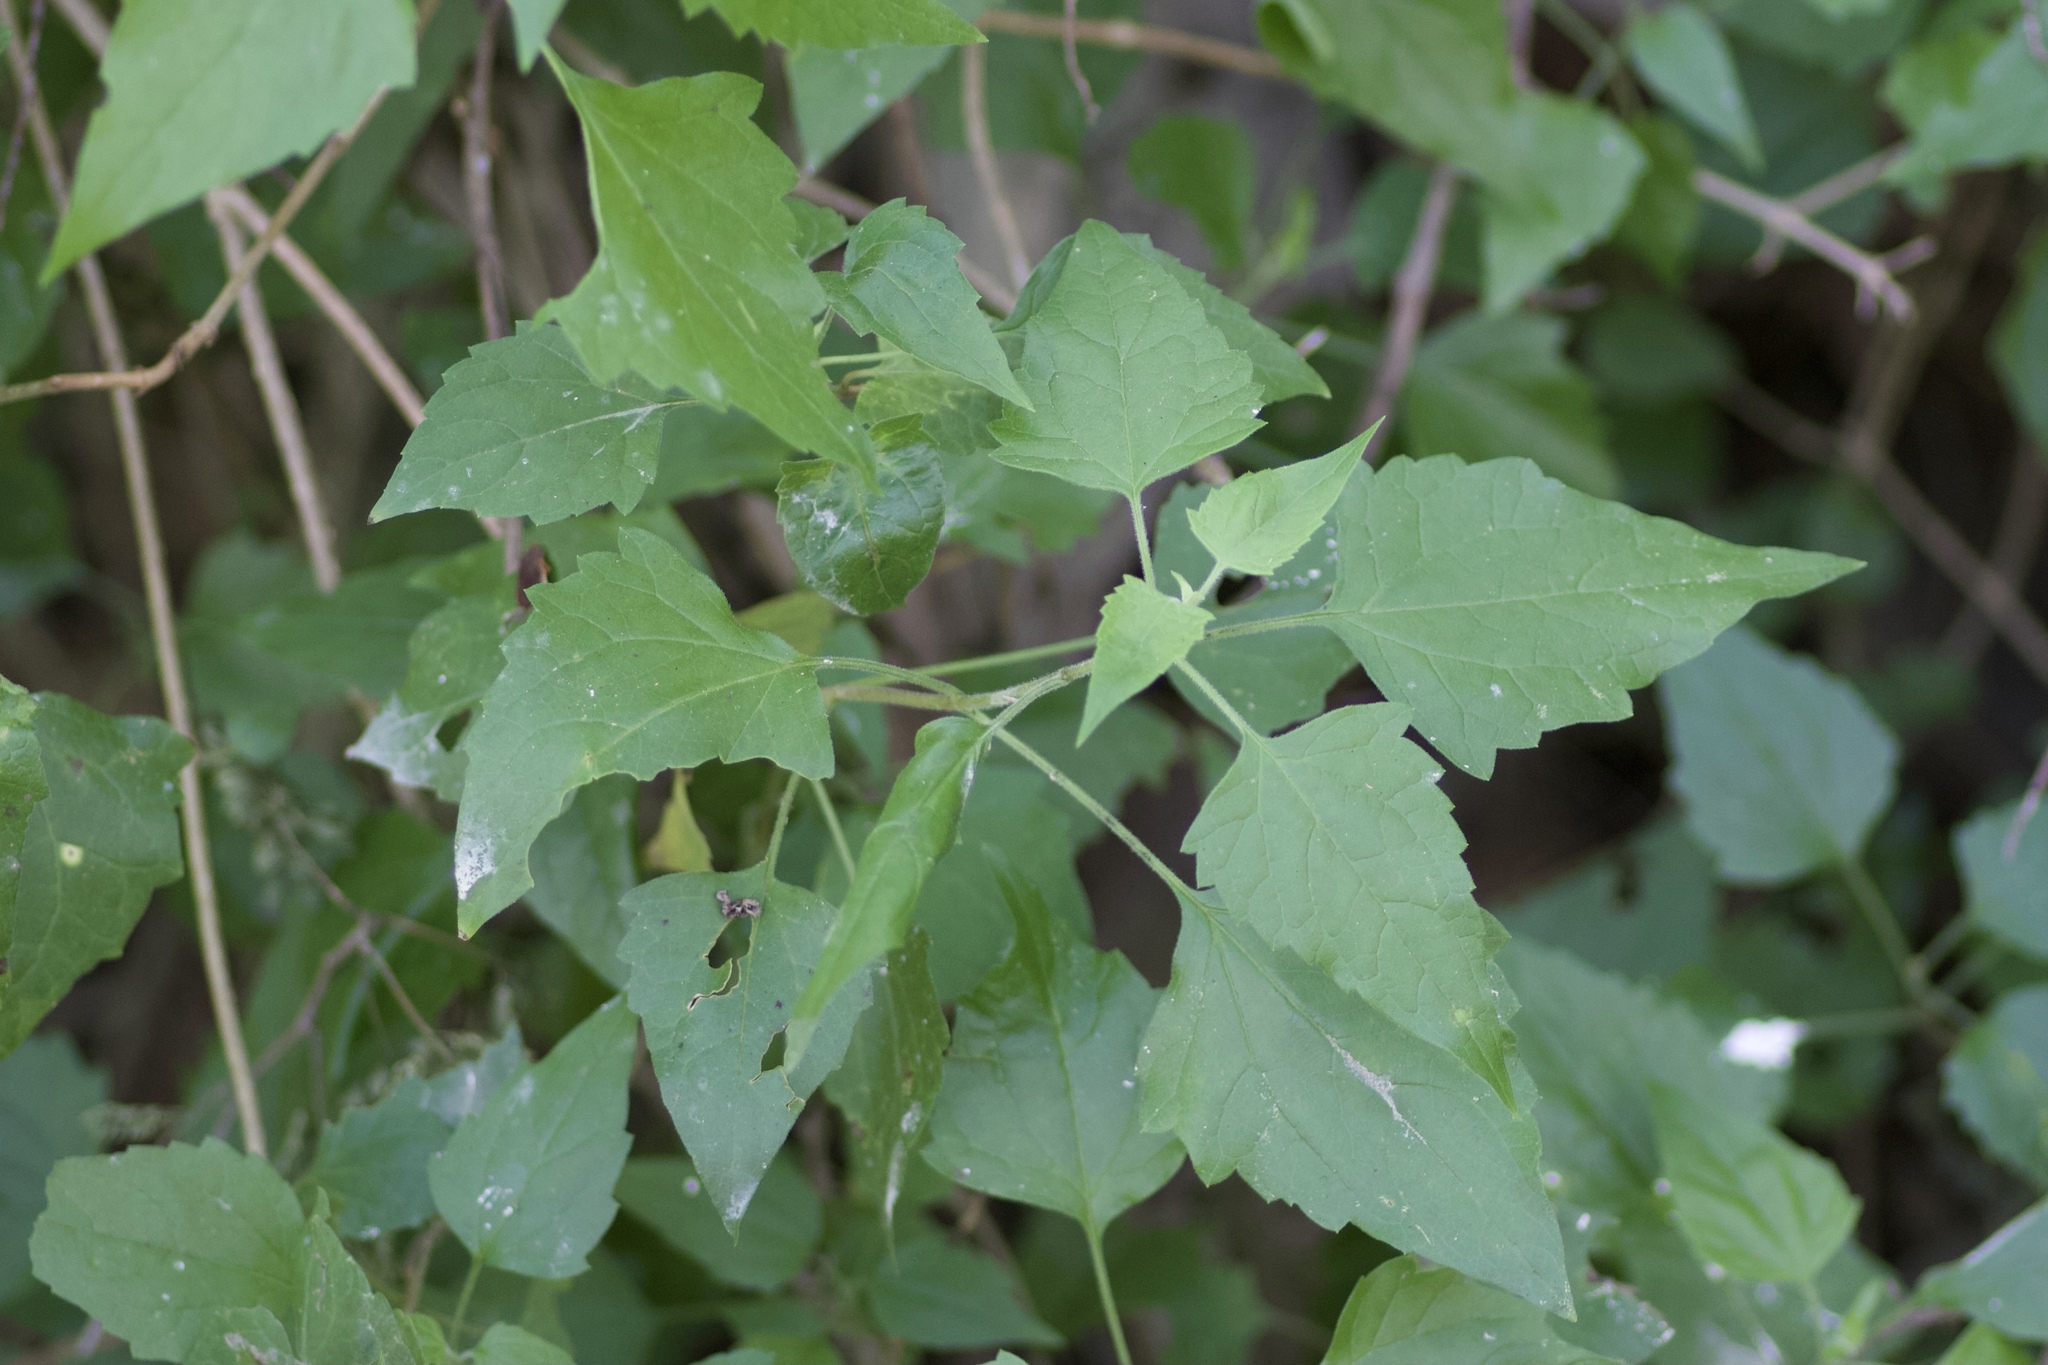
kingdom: Plantae
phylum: Tracheophyta
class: Magnoliopsida
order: Asterales
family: Asteraceae
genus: Tamaulipa
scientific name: Tamaulipa azurea
